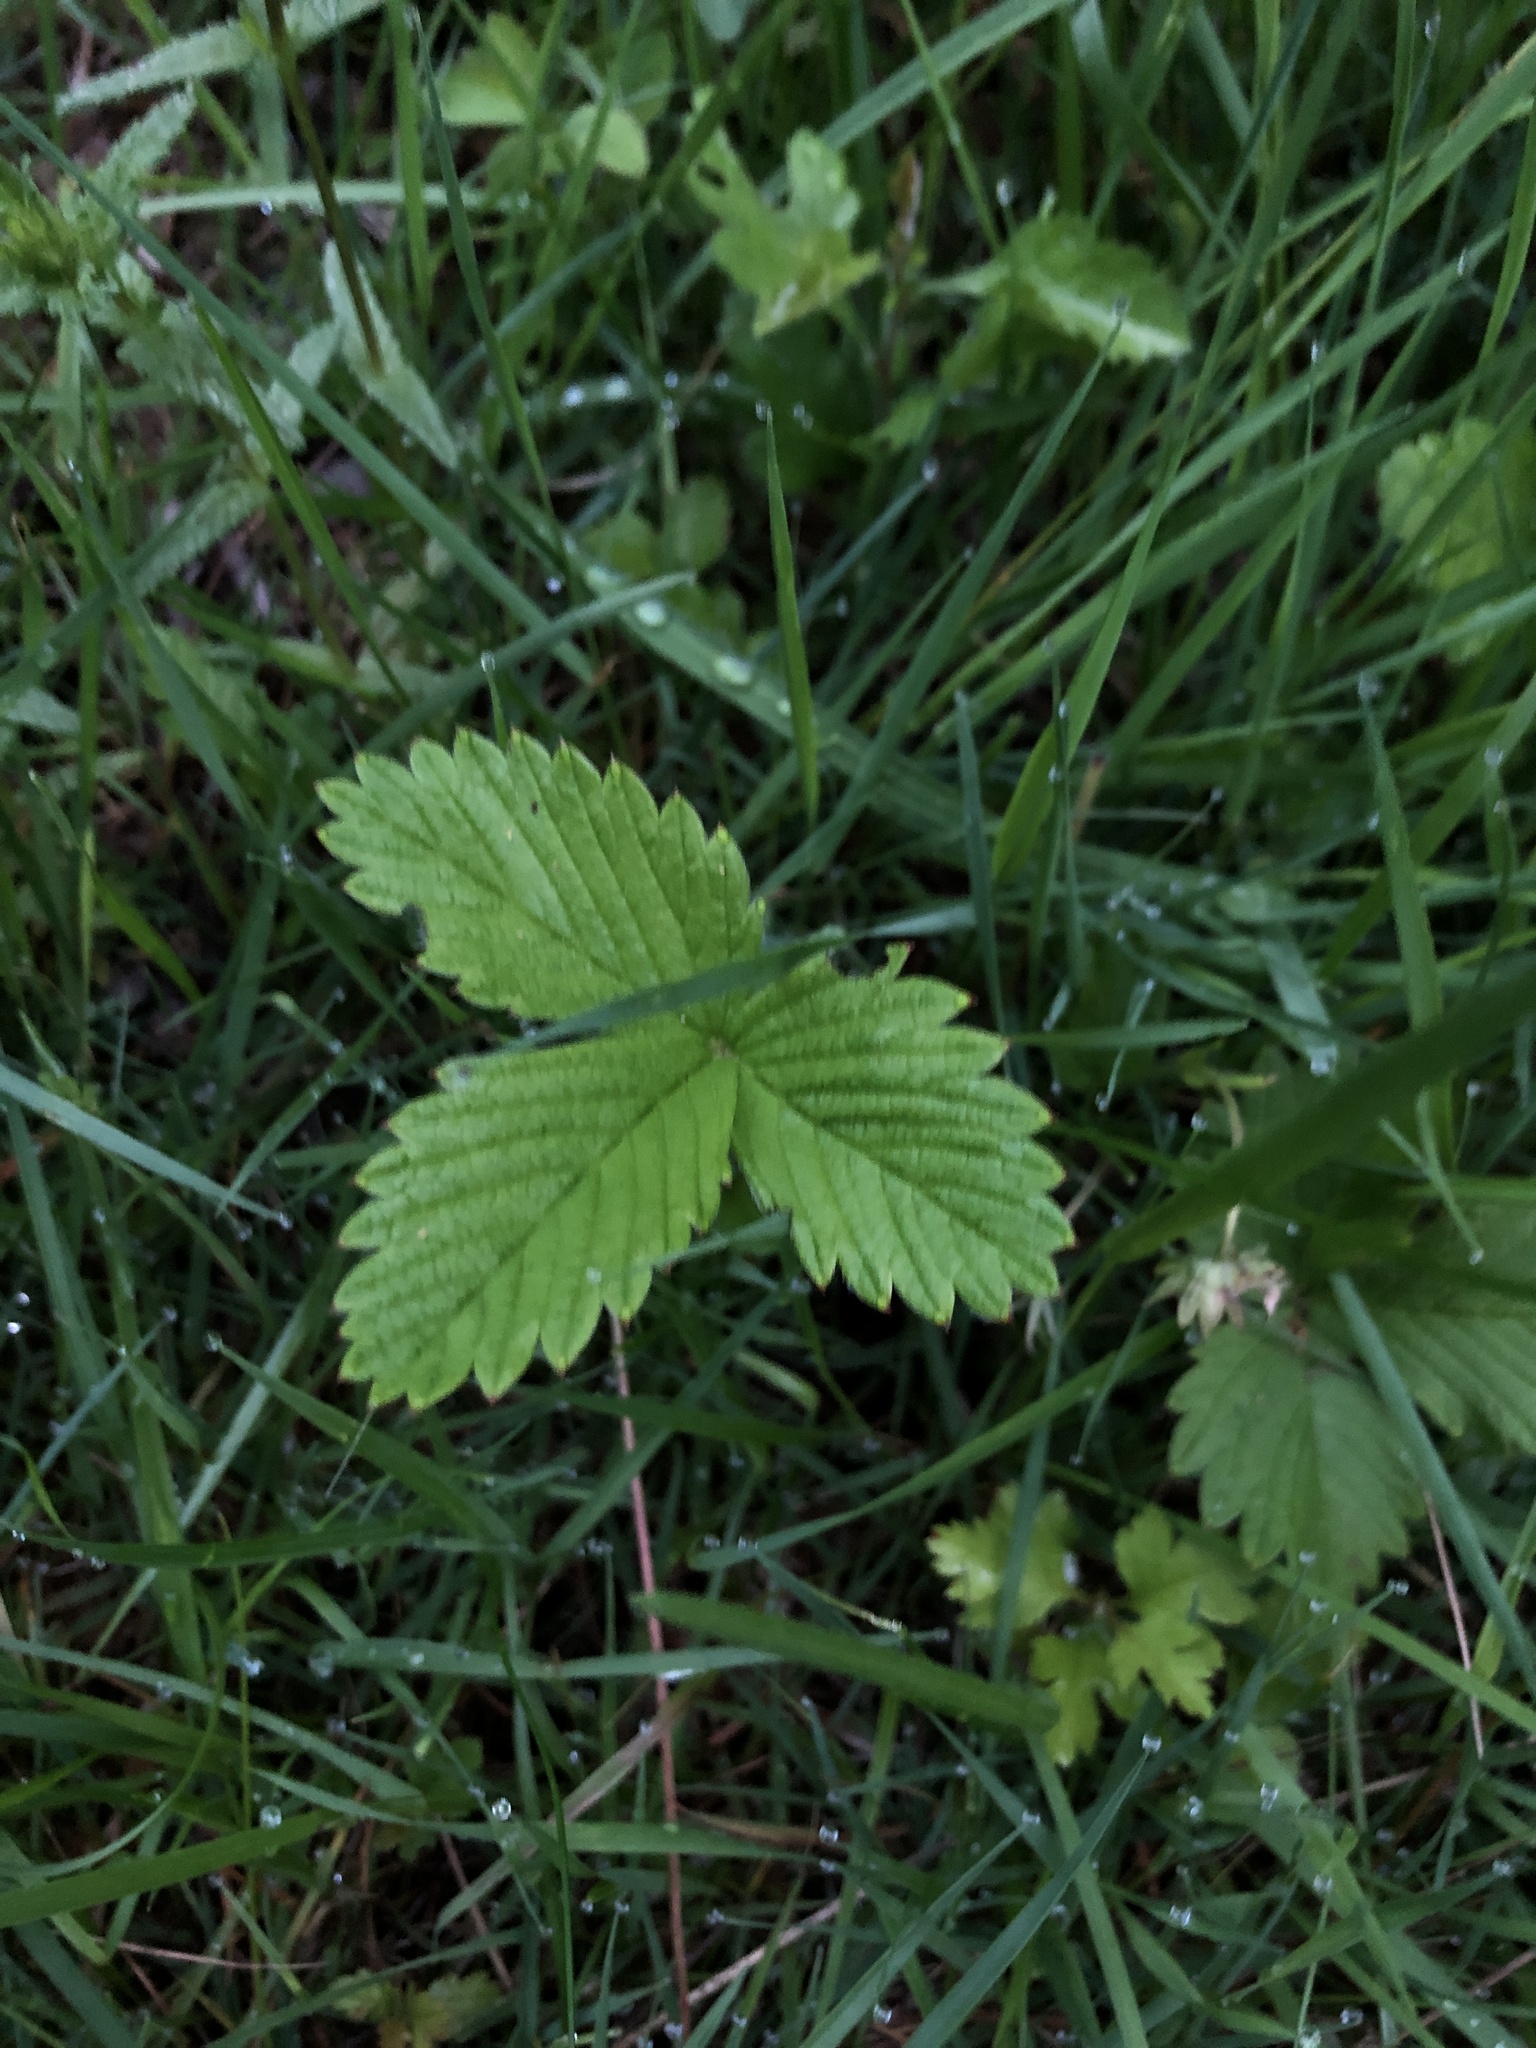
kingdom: Plantae
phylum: Tracheophyta
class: Magnoliopsida
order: Rosales
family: Rosaceae
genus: Fragaria
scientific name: Fragaria vesca
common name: Wild strawberry
